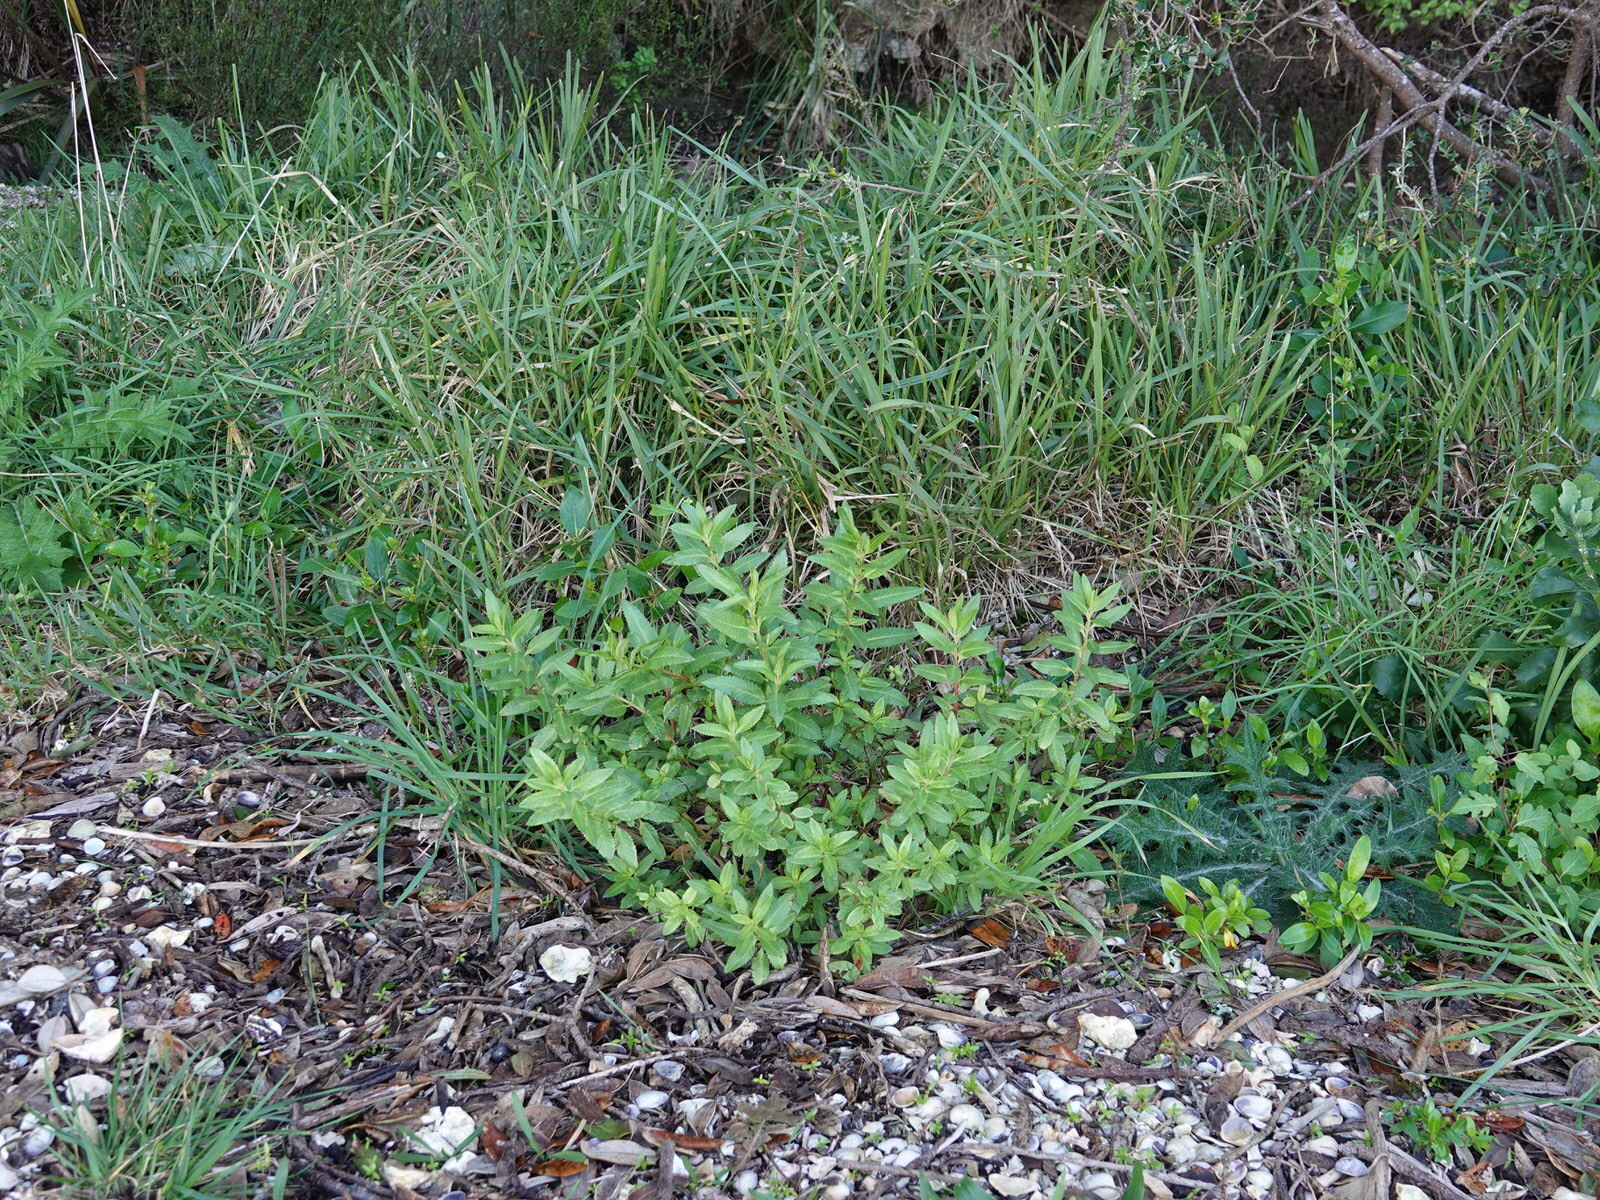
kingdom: Plantae
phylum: Tracheophyta
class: Magnoliopsida
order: Saxifragales
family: Haloragaceae
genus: Haloragis
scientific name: Haloragis erecta
